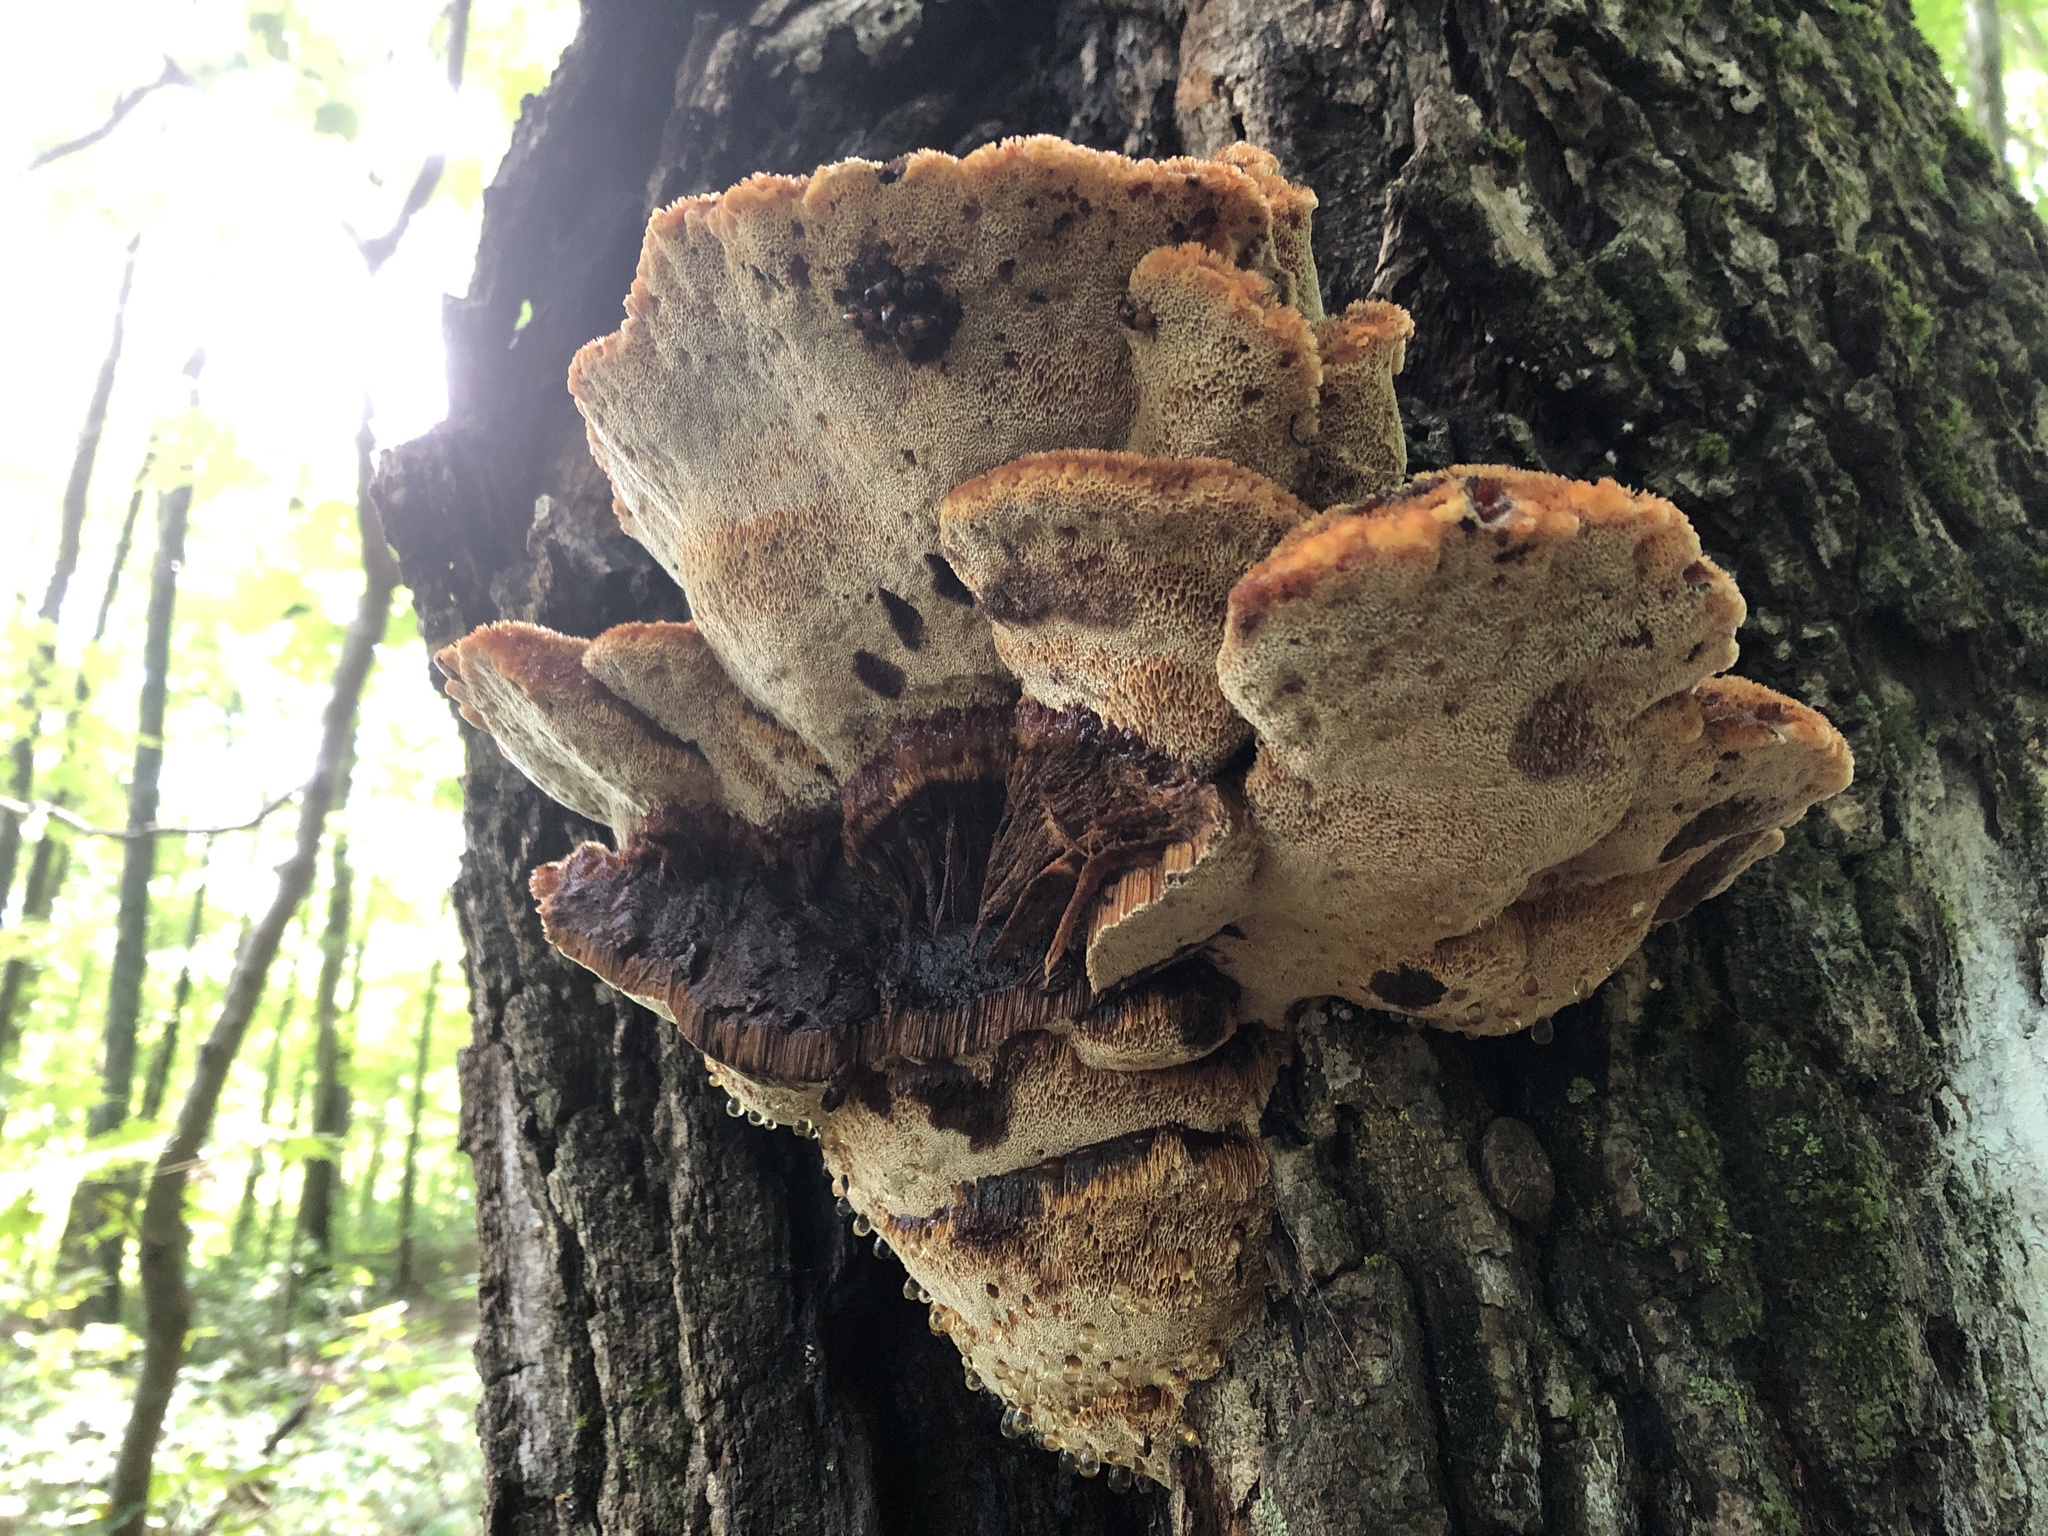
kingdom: Fungi
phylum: Basidiomycota
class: Agaricomycetes
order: Hymenochaetales
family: Hymenochaetaceae
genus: Inonotus
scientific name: Inonotus hispidus
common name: Shaggy bracket
